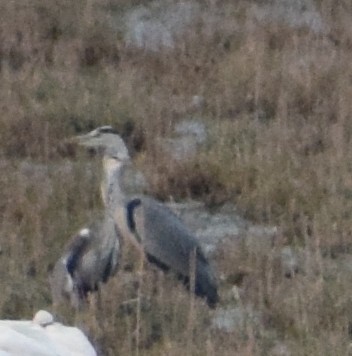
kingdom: Animalia
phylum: Chordata
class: Aves
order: Pelecaniformes
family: Ardeidae
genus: Ardea
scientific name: Ardea cinerea
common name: Grey heron
